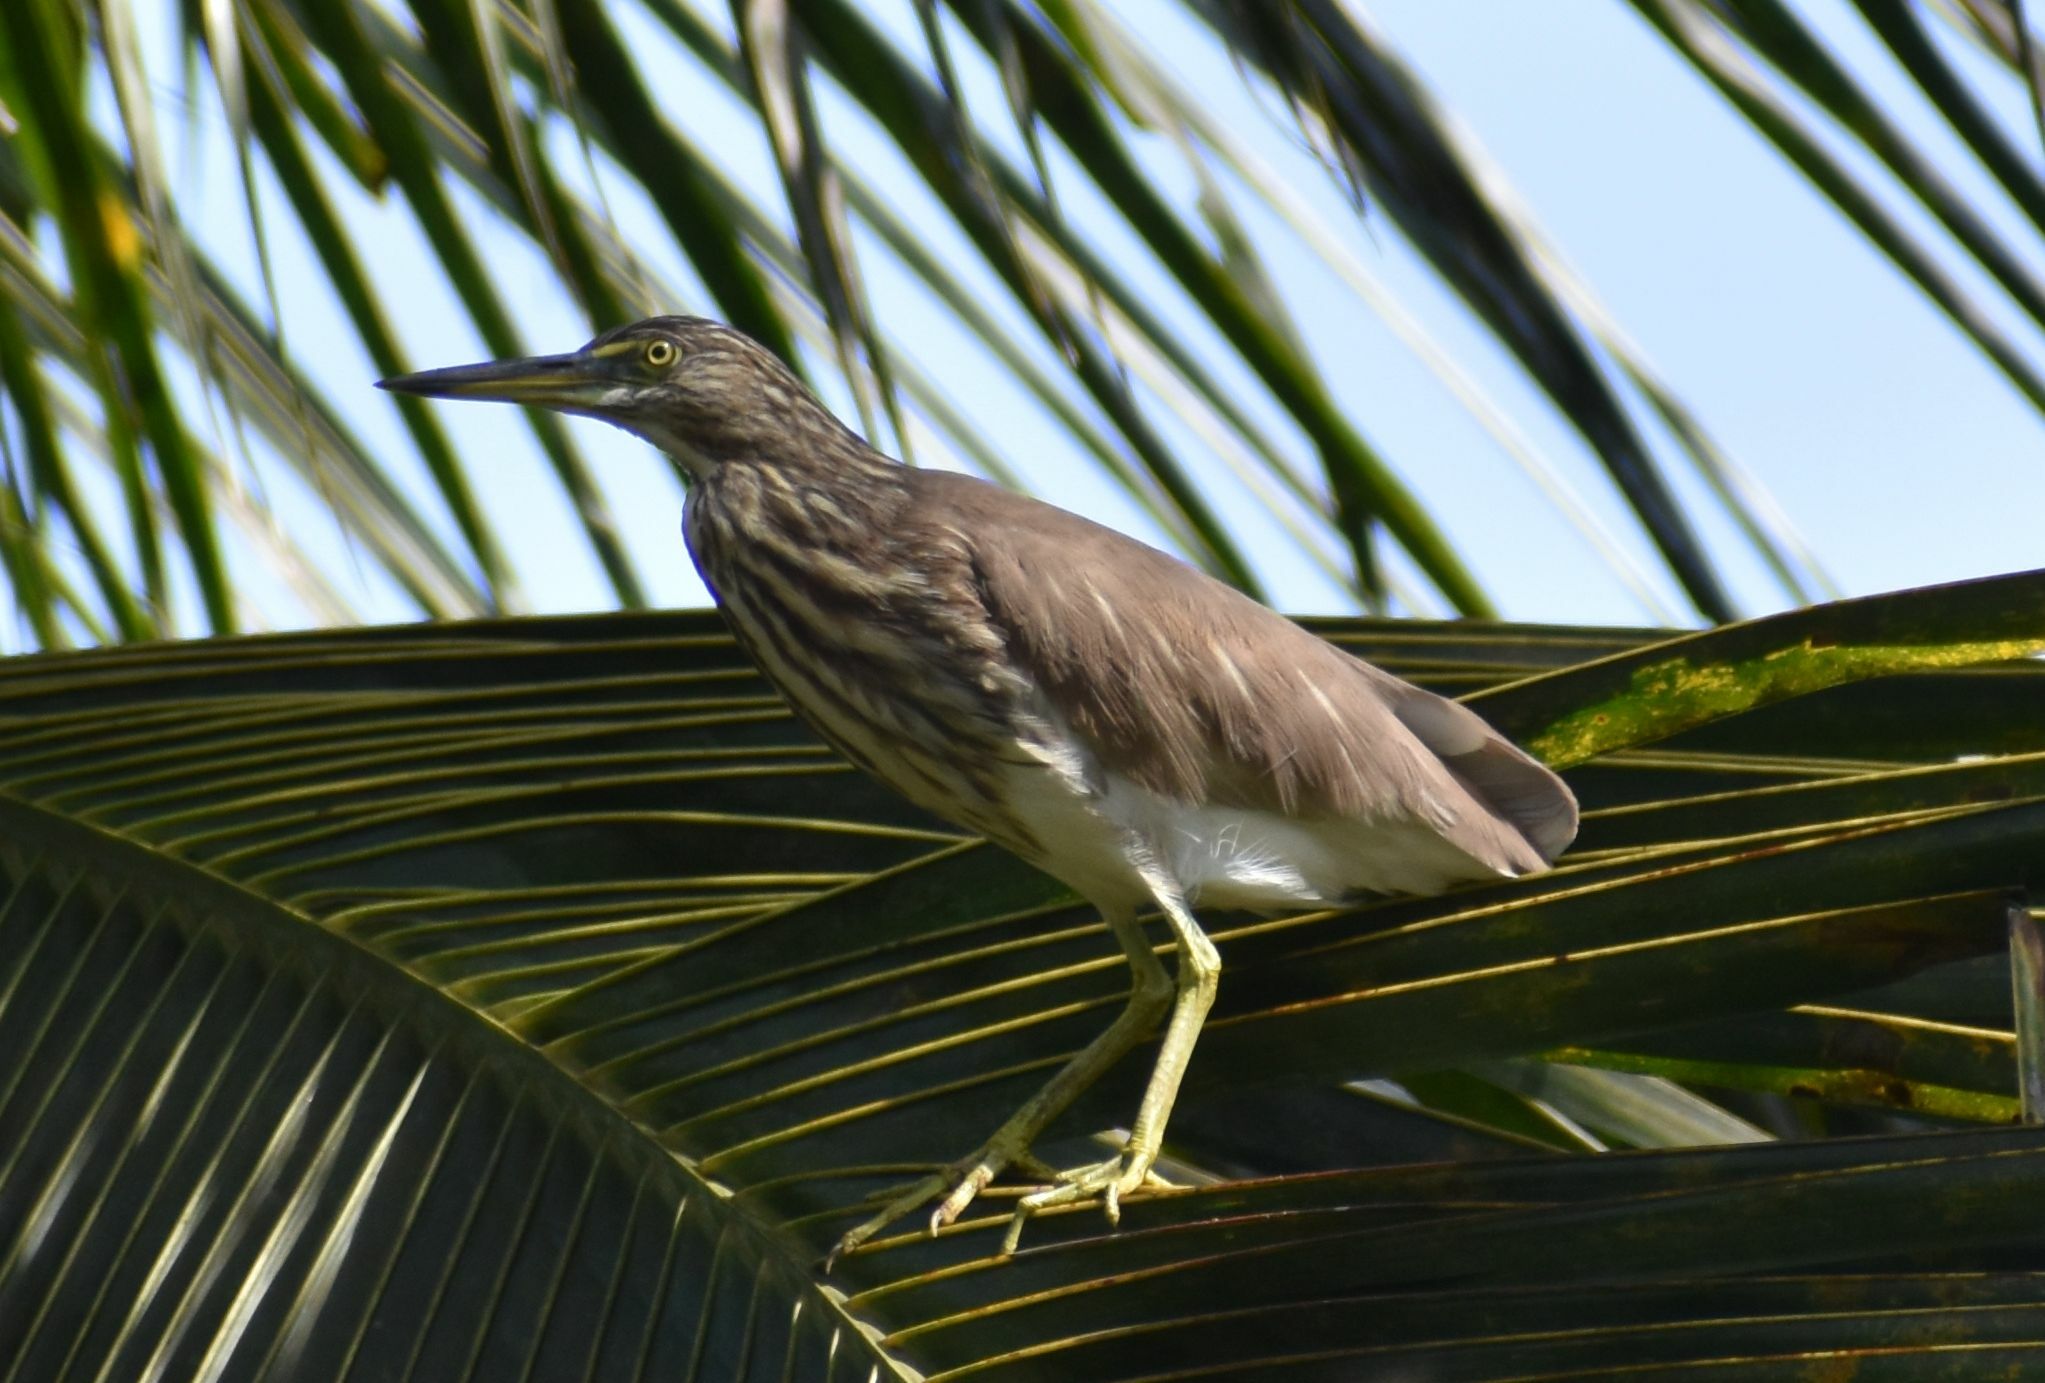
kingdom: Animalia
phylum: Chordata
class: Aves
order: Pelecaniformes
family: Ardeidae
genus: Ardeola
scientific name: Ardeola grayii
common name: Indian pond heron
